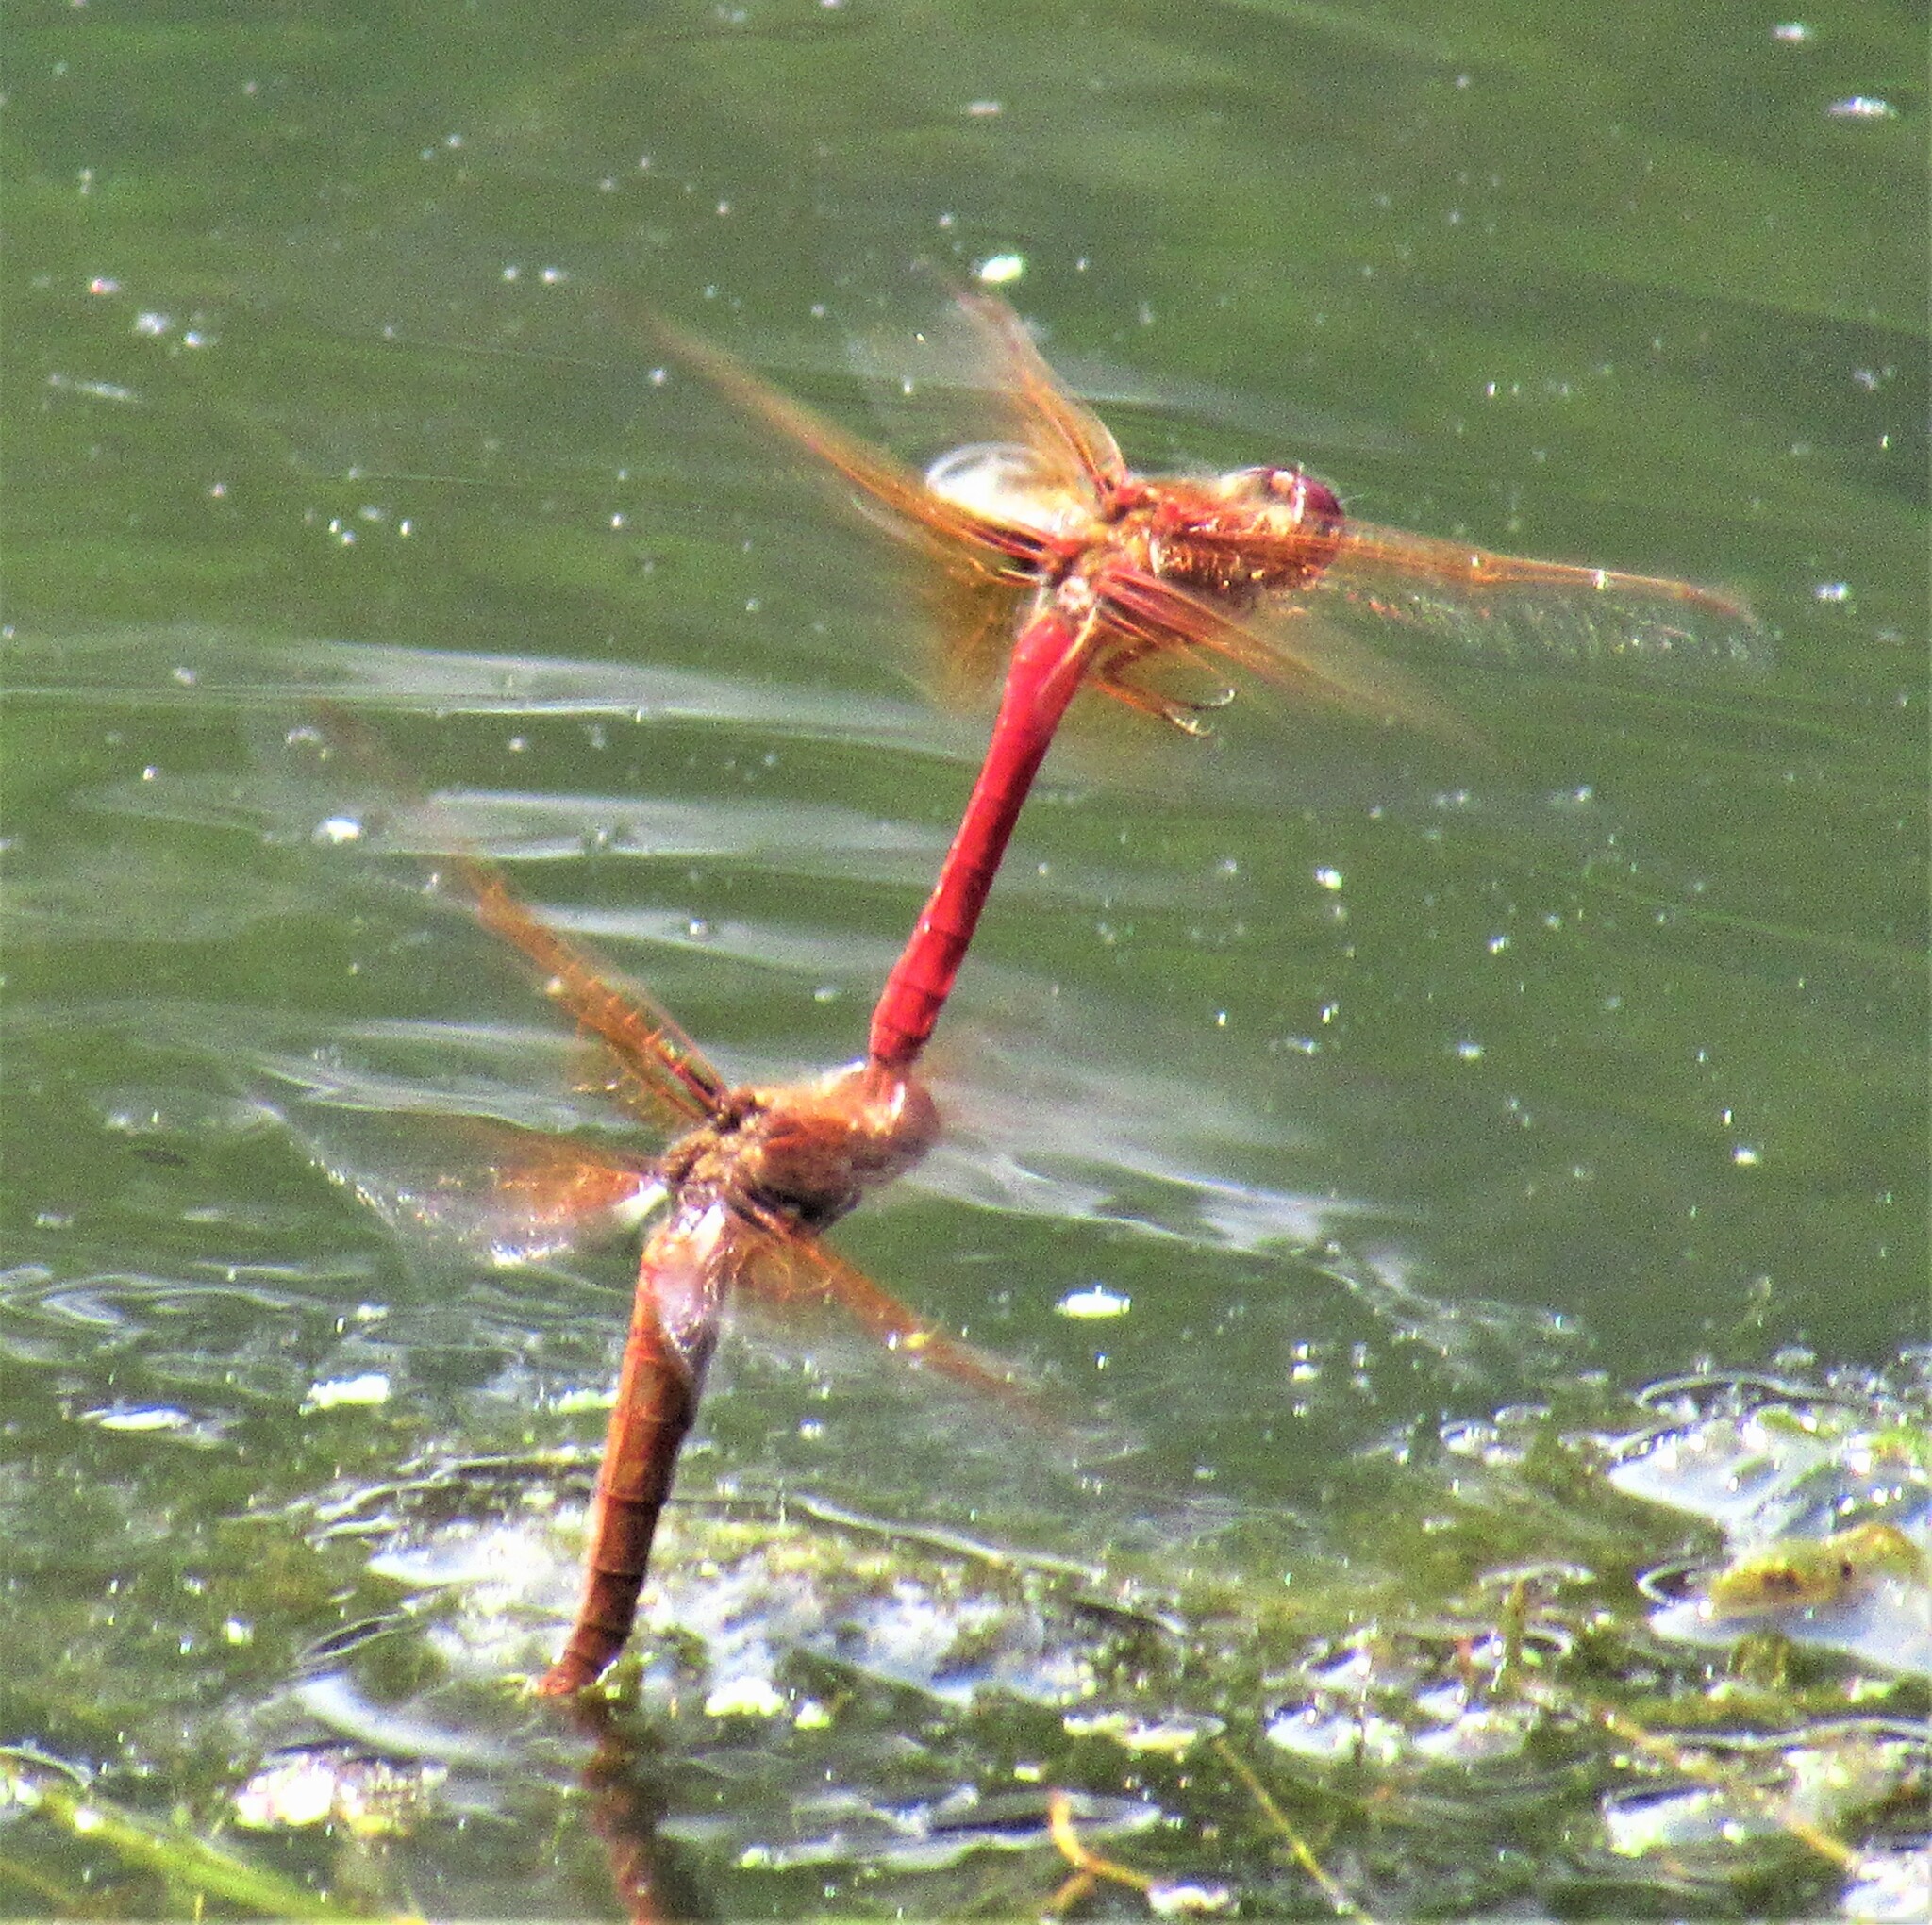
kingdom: Animalia
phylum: Arthropoda
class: Insecta
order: Odonata
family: Libellulidae
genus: Sympetrum
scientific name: Sympetrum illotum
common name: Cardinal meadowhawk
